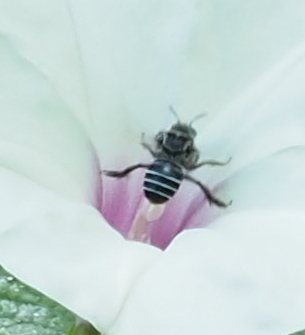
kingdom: Animalia
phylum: Arthropoda
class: Insecta
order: Hymenoptera
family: Apidae
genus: Melitoma
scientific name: Melitoma taurea
